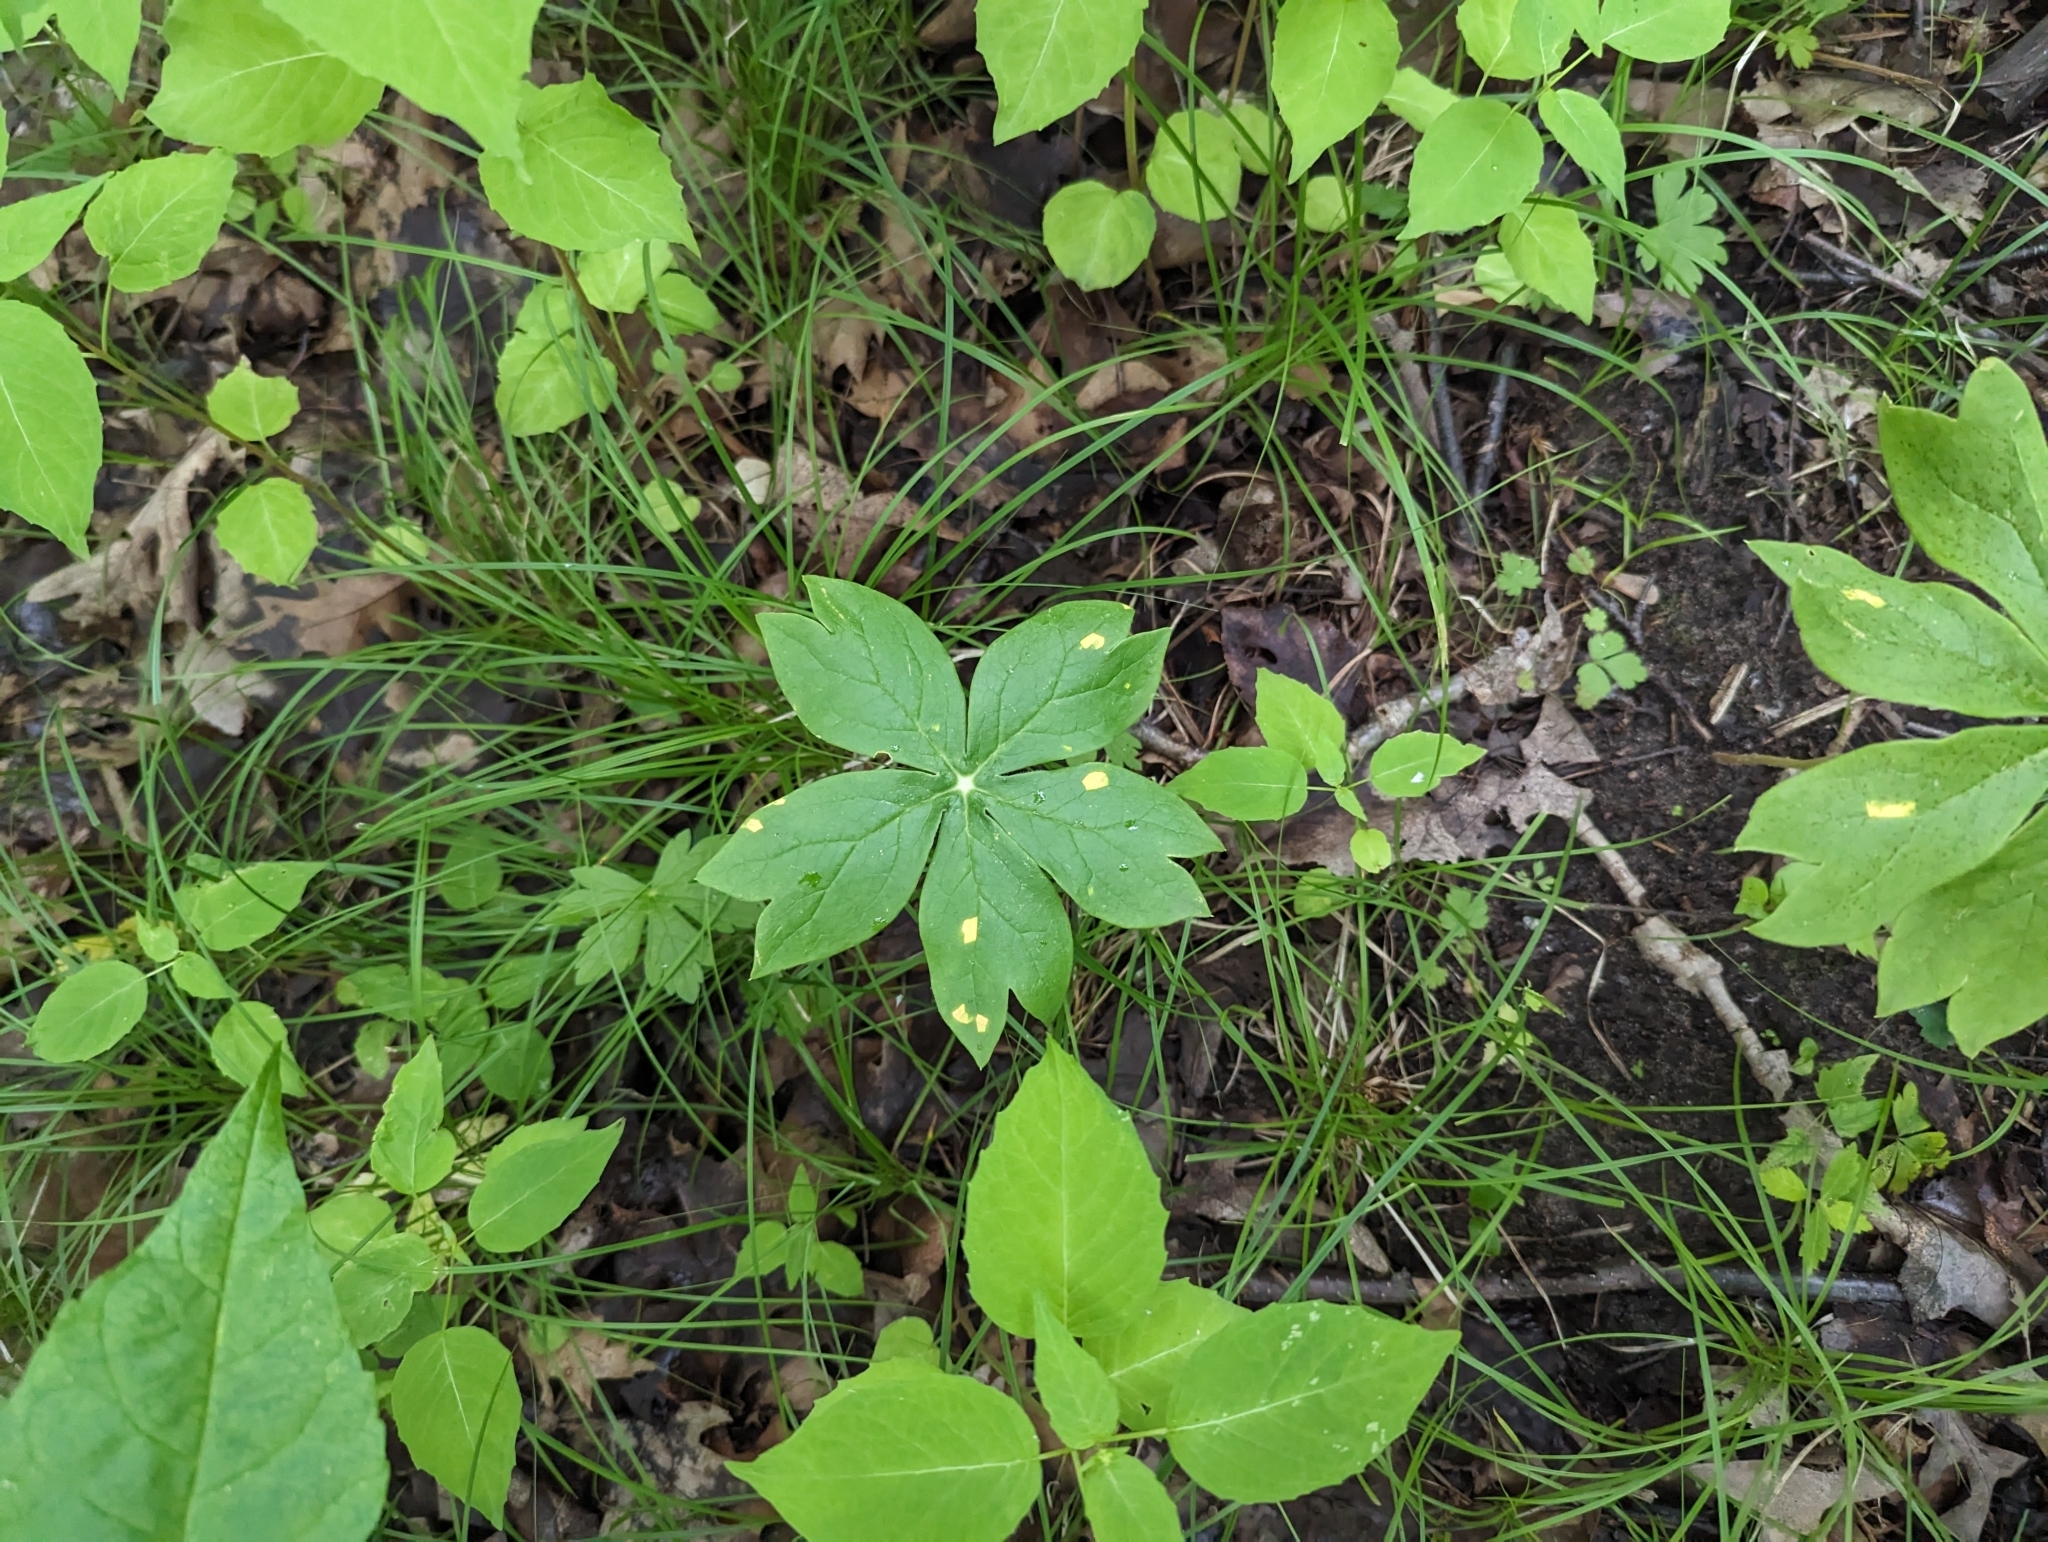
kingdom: Plantae
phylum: Tracheophyta
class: Magnoliopsida
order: Ranunculales
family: Berberidaceae
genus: Podophyllum
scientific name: Podophyllum peltatum
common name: Wild mandrake
